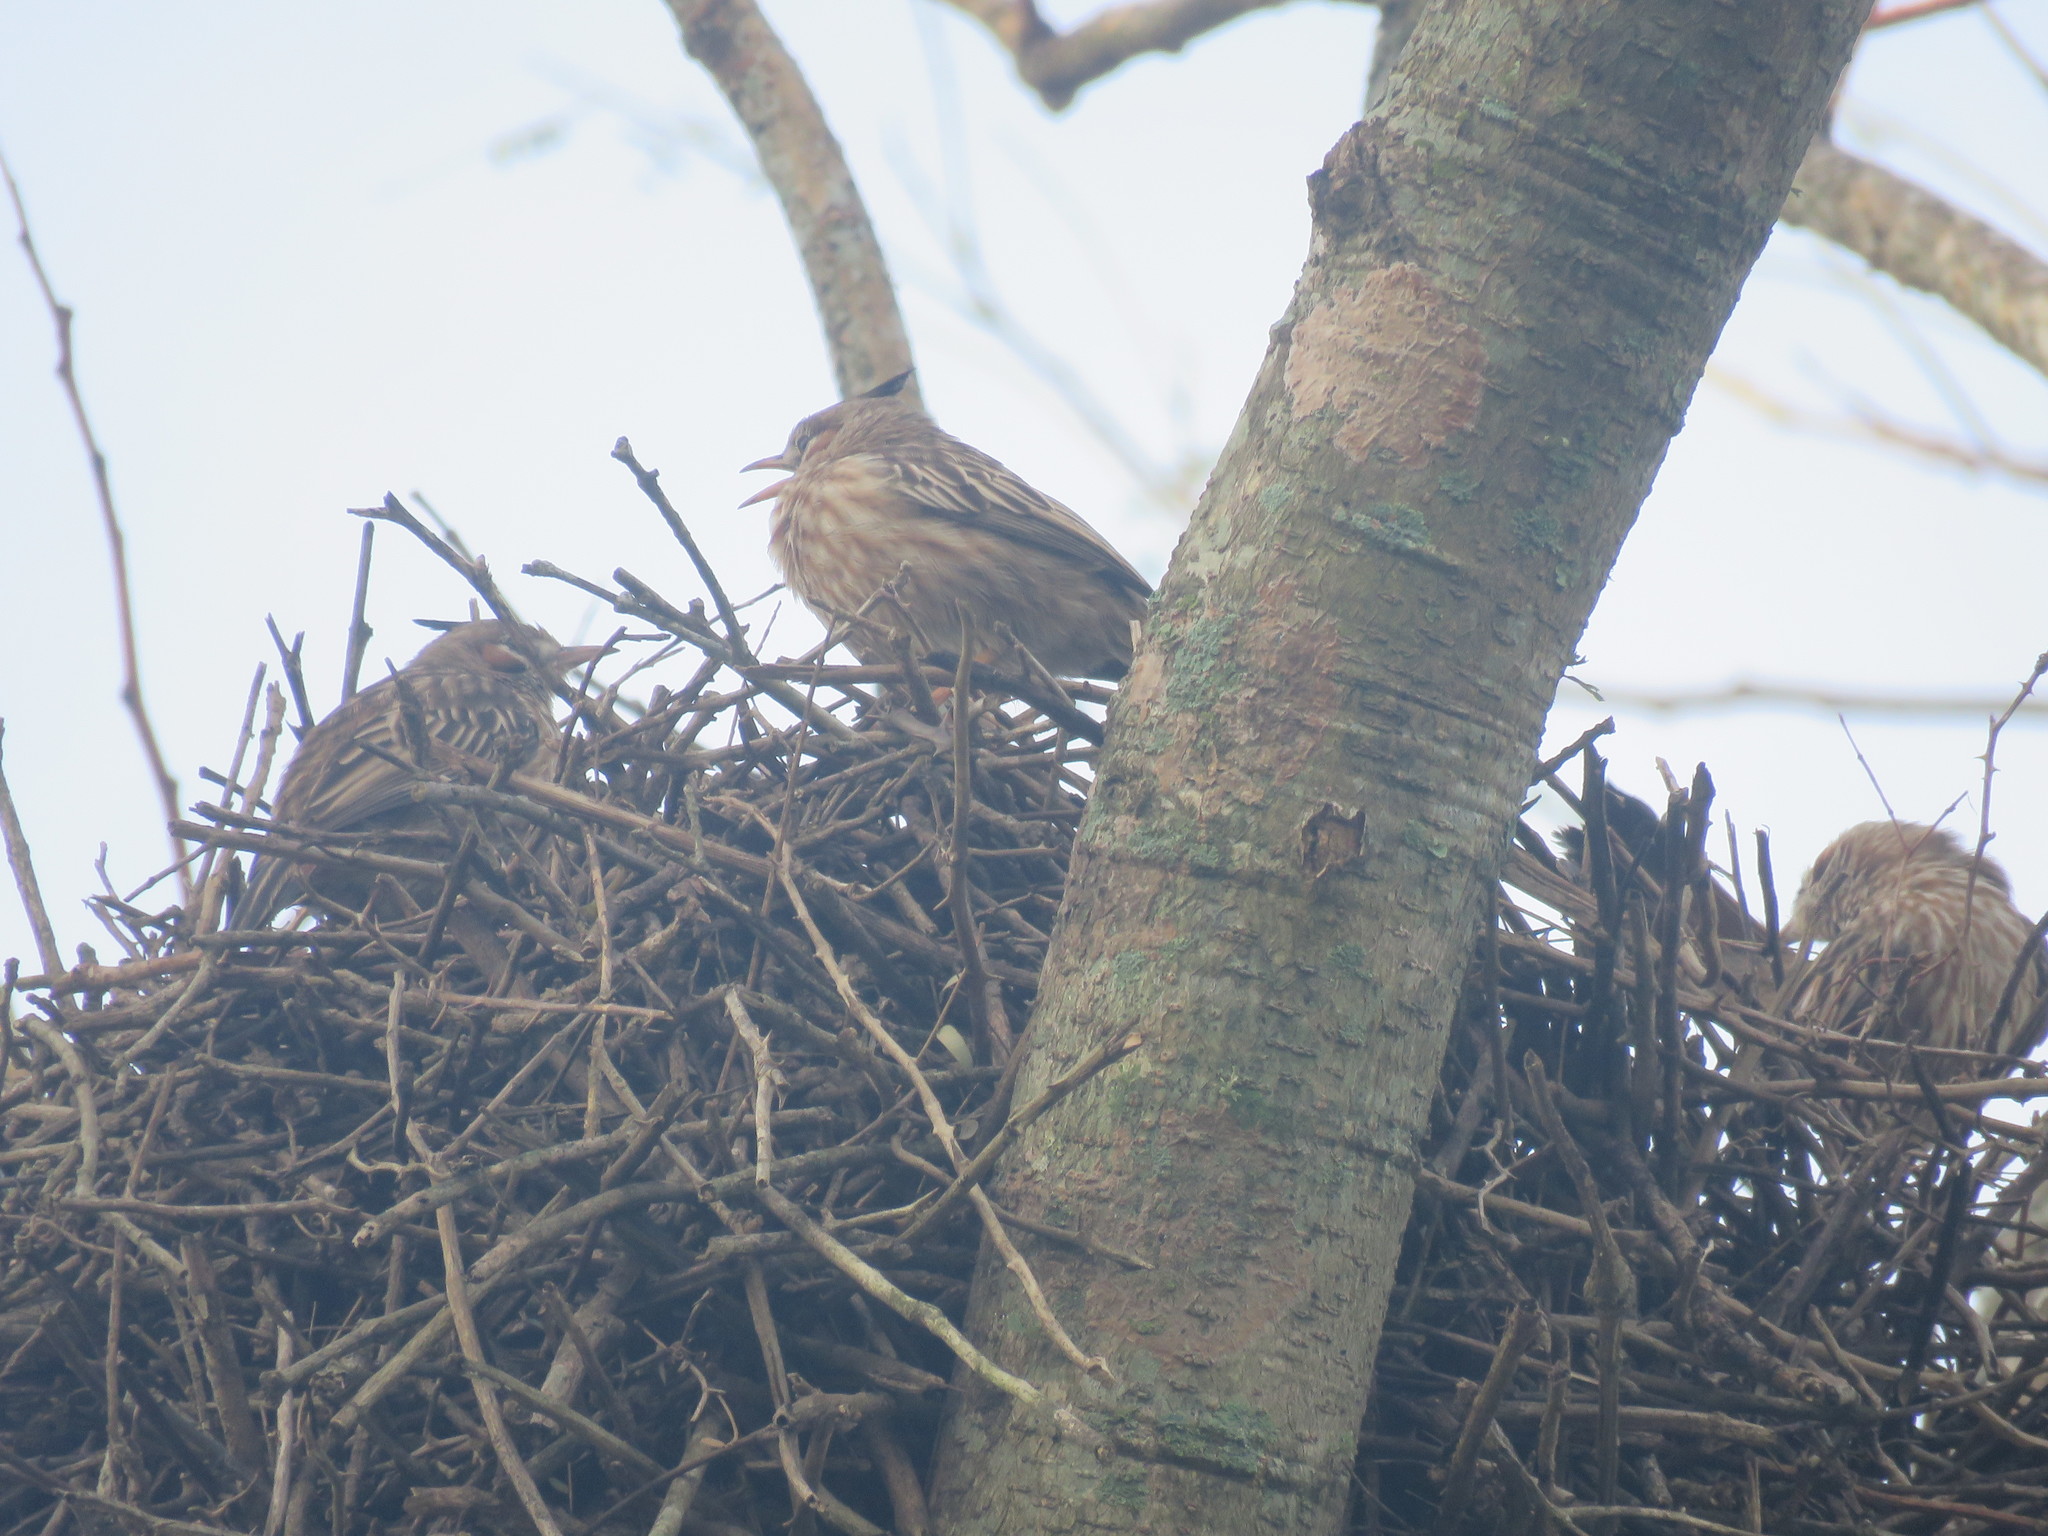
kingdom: Animalia
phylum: Chordata
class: Aves
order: Passeriformes
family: Furnariidae
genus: Coryphistera
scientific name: Coryphistera alaudina
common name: Lark-like brushrunner
